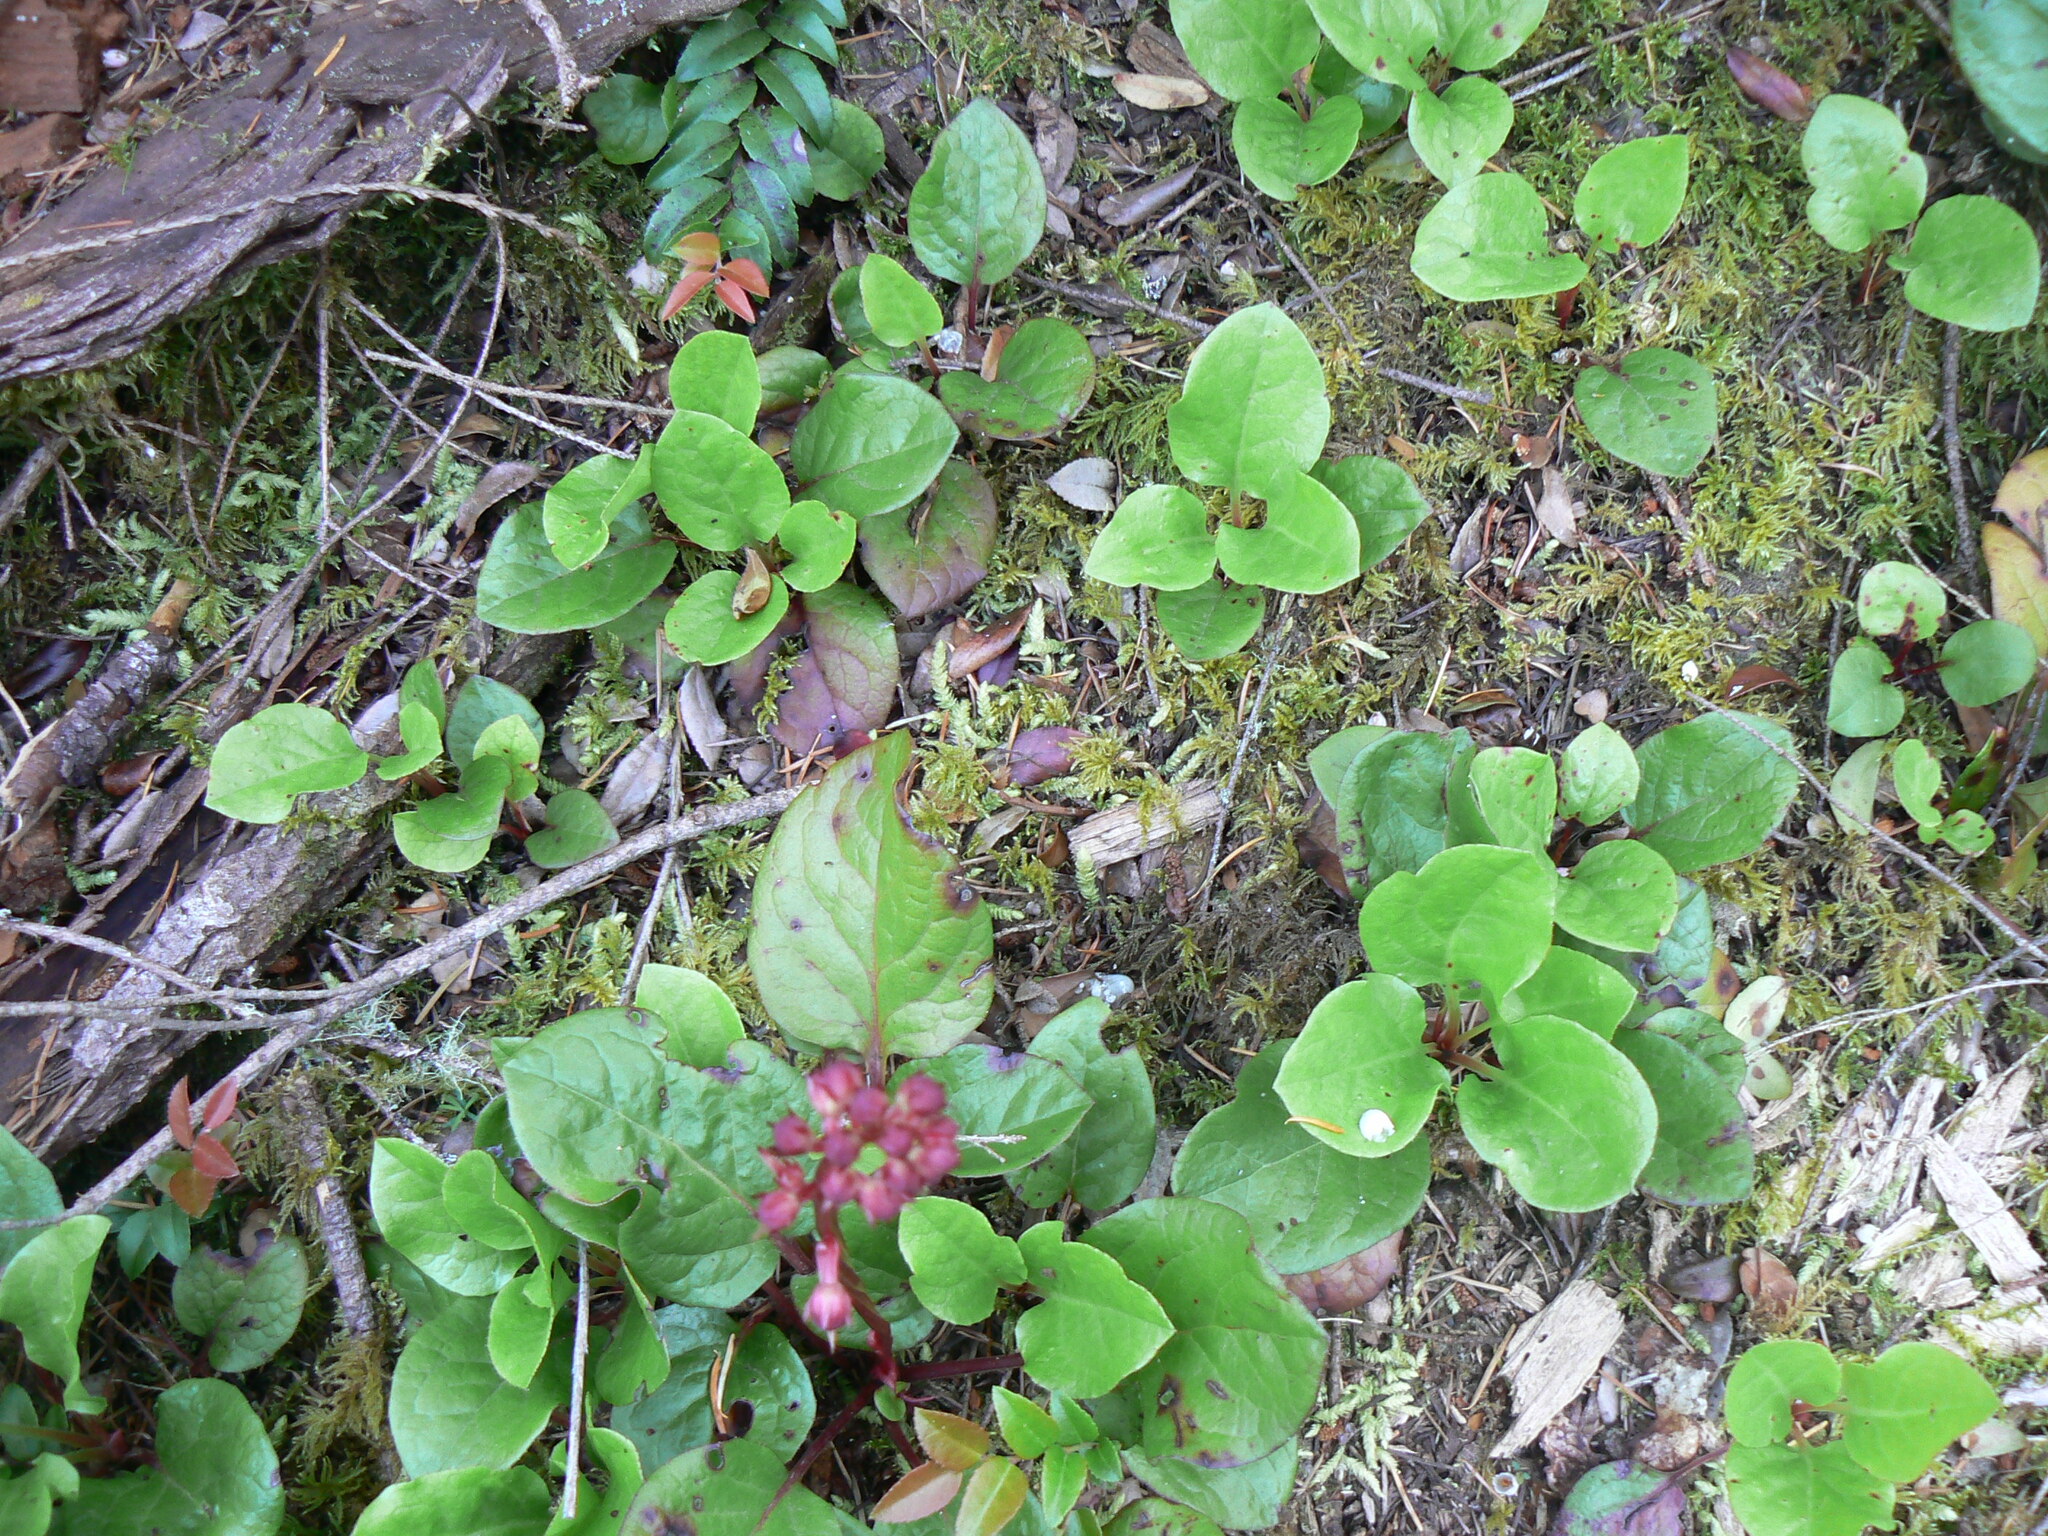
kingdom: Plantae
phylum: Tracheophyta
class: Magnoliopsida
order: Ericales
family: Ericaceae
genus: Pyrola
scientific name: Pyrola asarifolia
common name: Bog wintergreen
